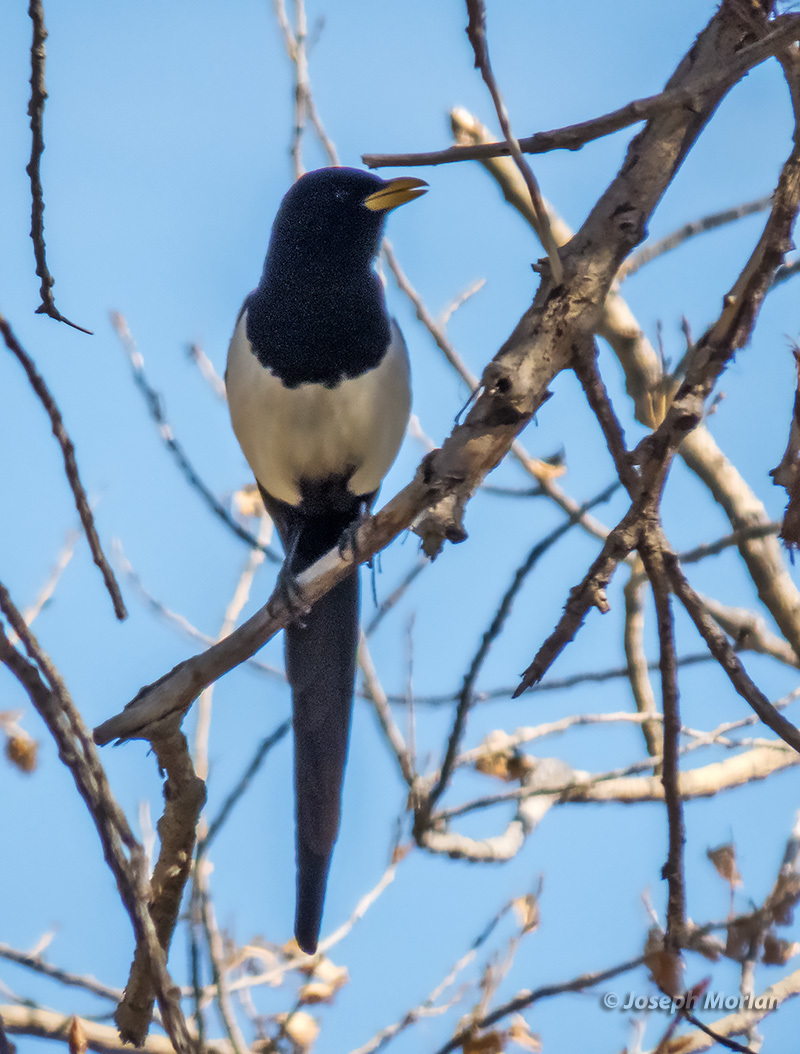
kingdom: Animalia
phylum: Chordata
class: Aves
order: Passeriformes
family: Corvidae
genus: Pica
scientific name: Pica nuttalli
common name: Yellow-billed magpie
